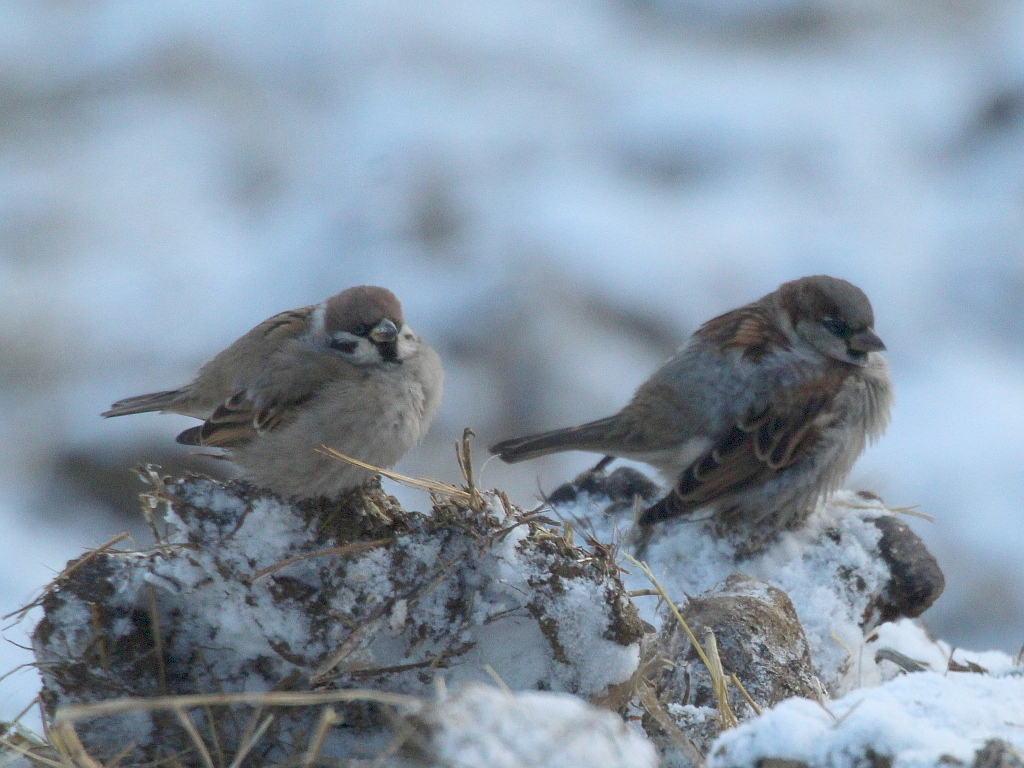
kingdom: Animalia
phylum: Chordata
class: Aves
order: Passeriformes
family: Passeridae
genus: Passer
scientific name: Passer domesticus
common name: House sparrow
